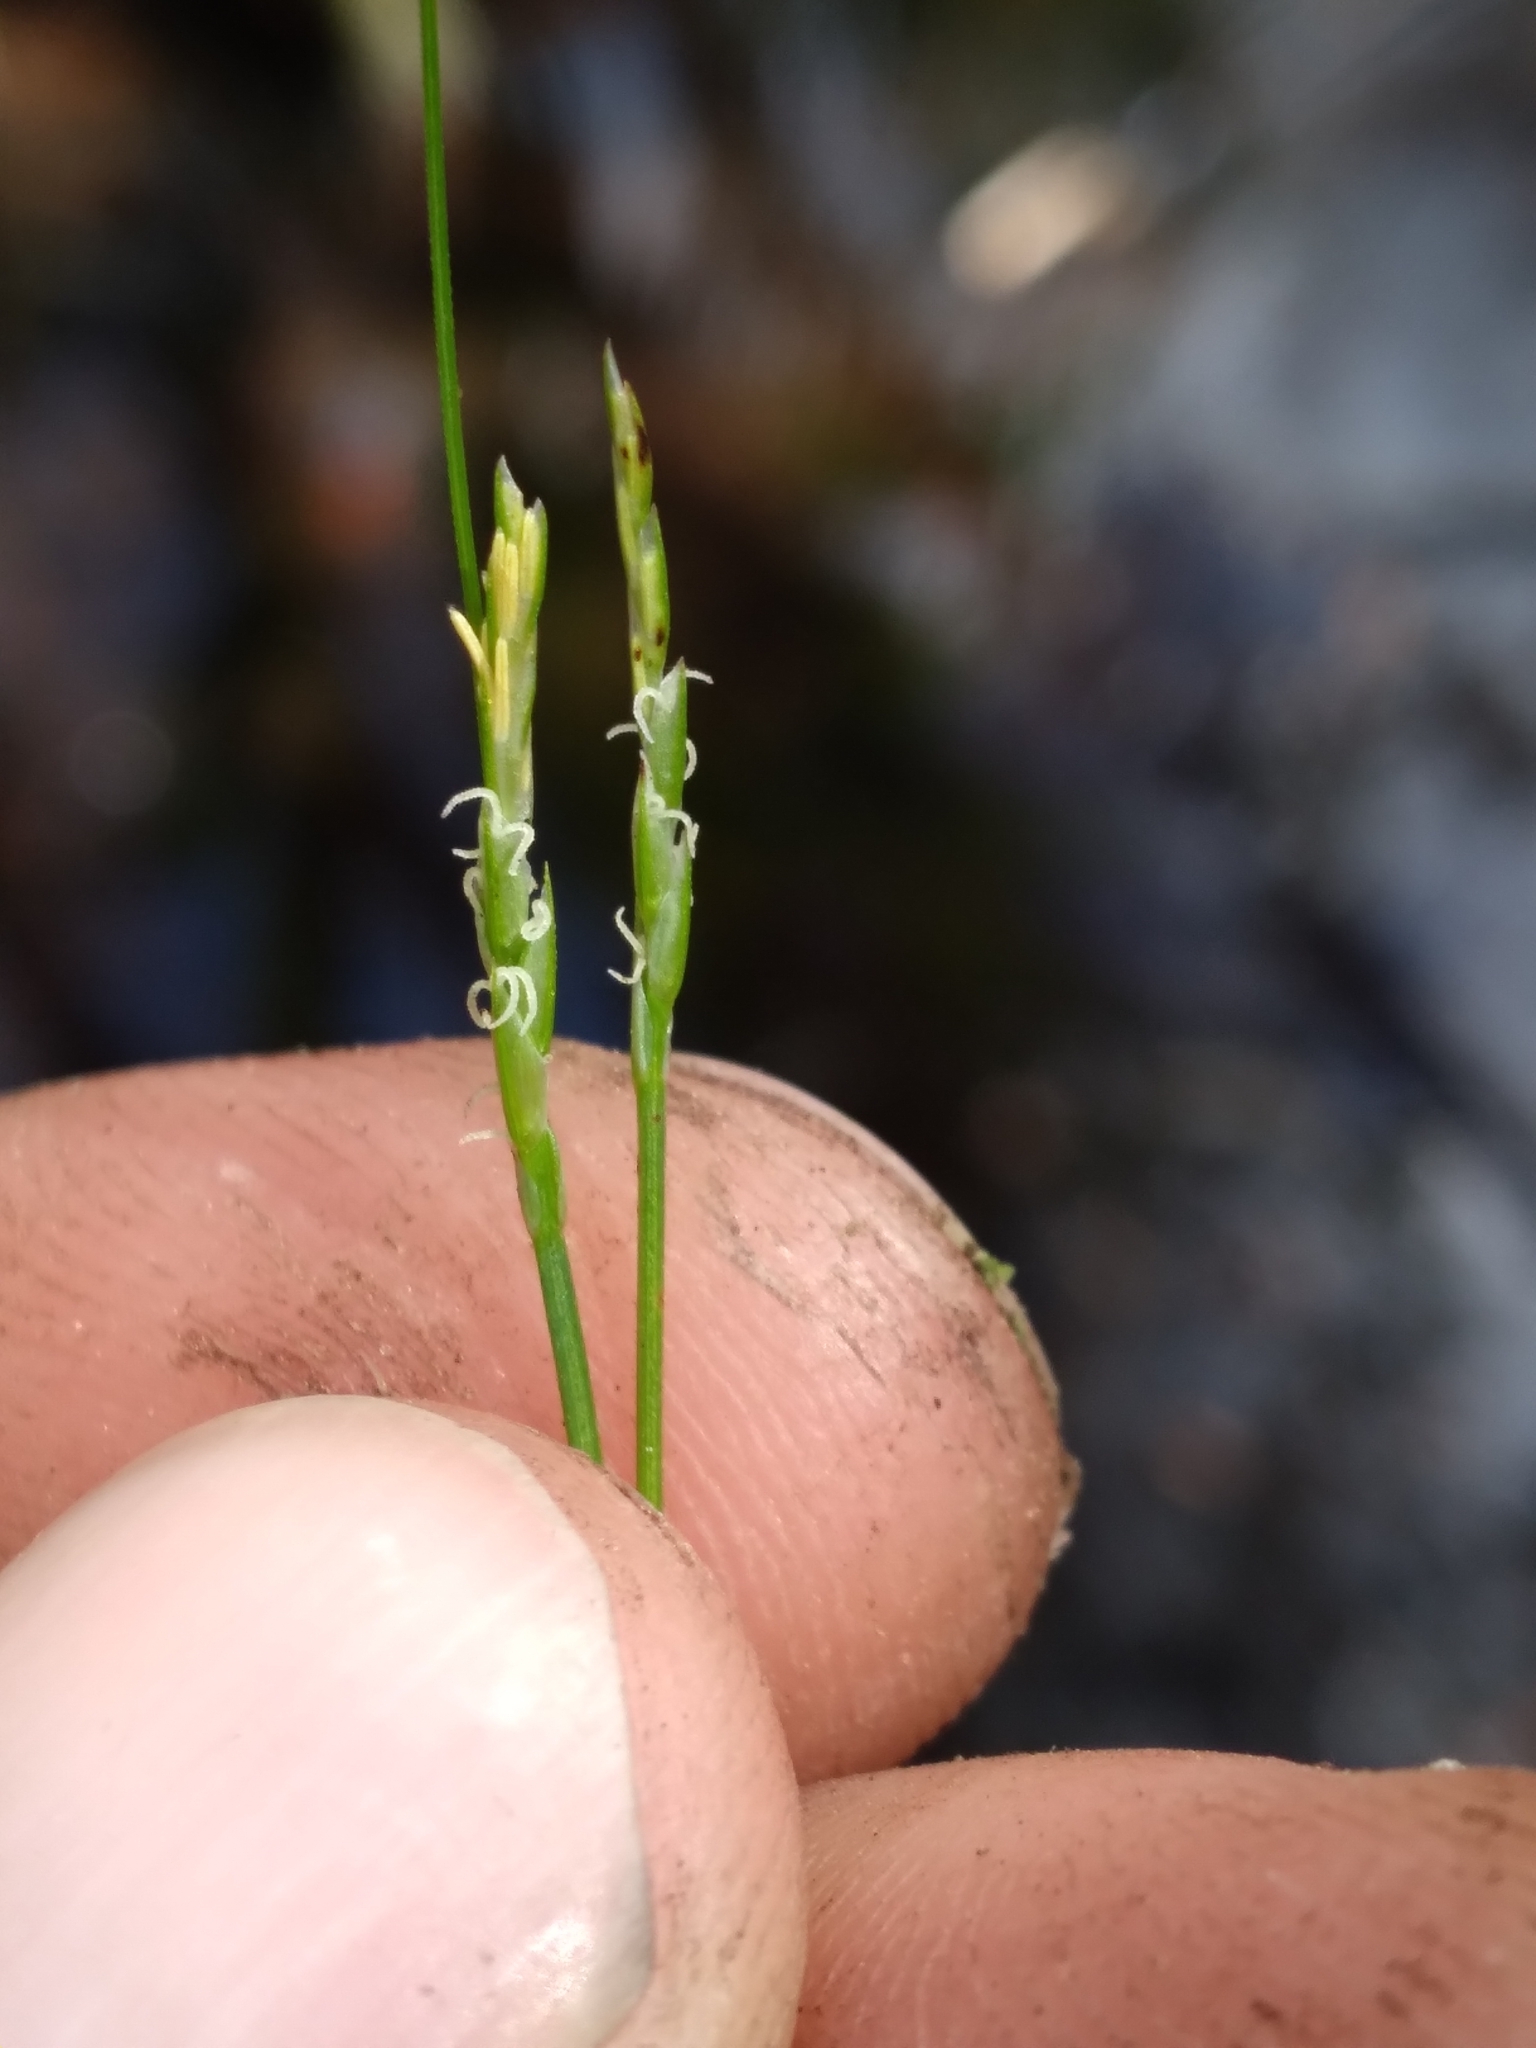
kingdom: Plantae
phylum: Tracheophyta
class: Liliopsida
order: Poales
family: Cyperaceae
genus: Carex
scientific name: Carex leptalea
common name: Bristly-stalked sedge
